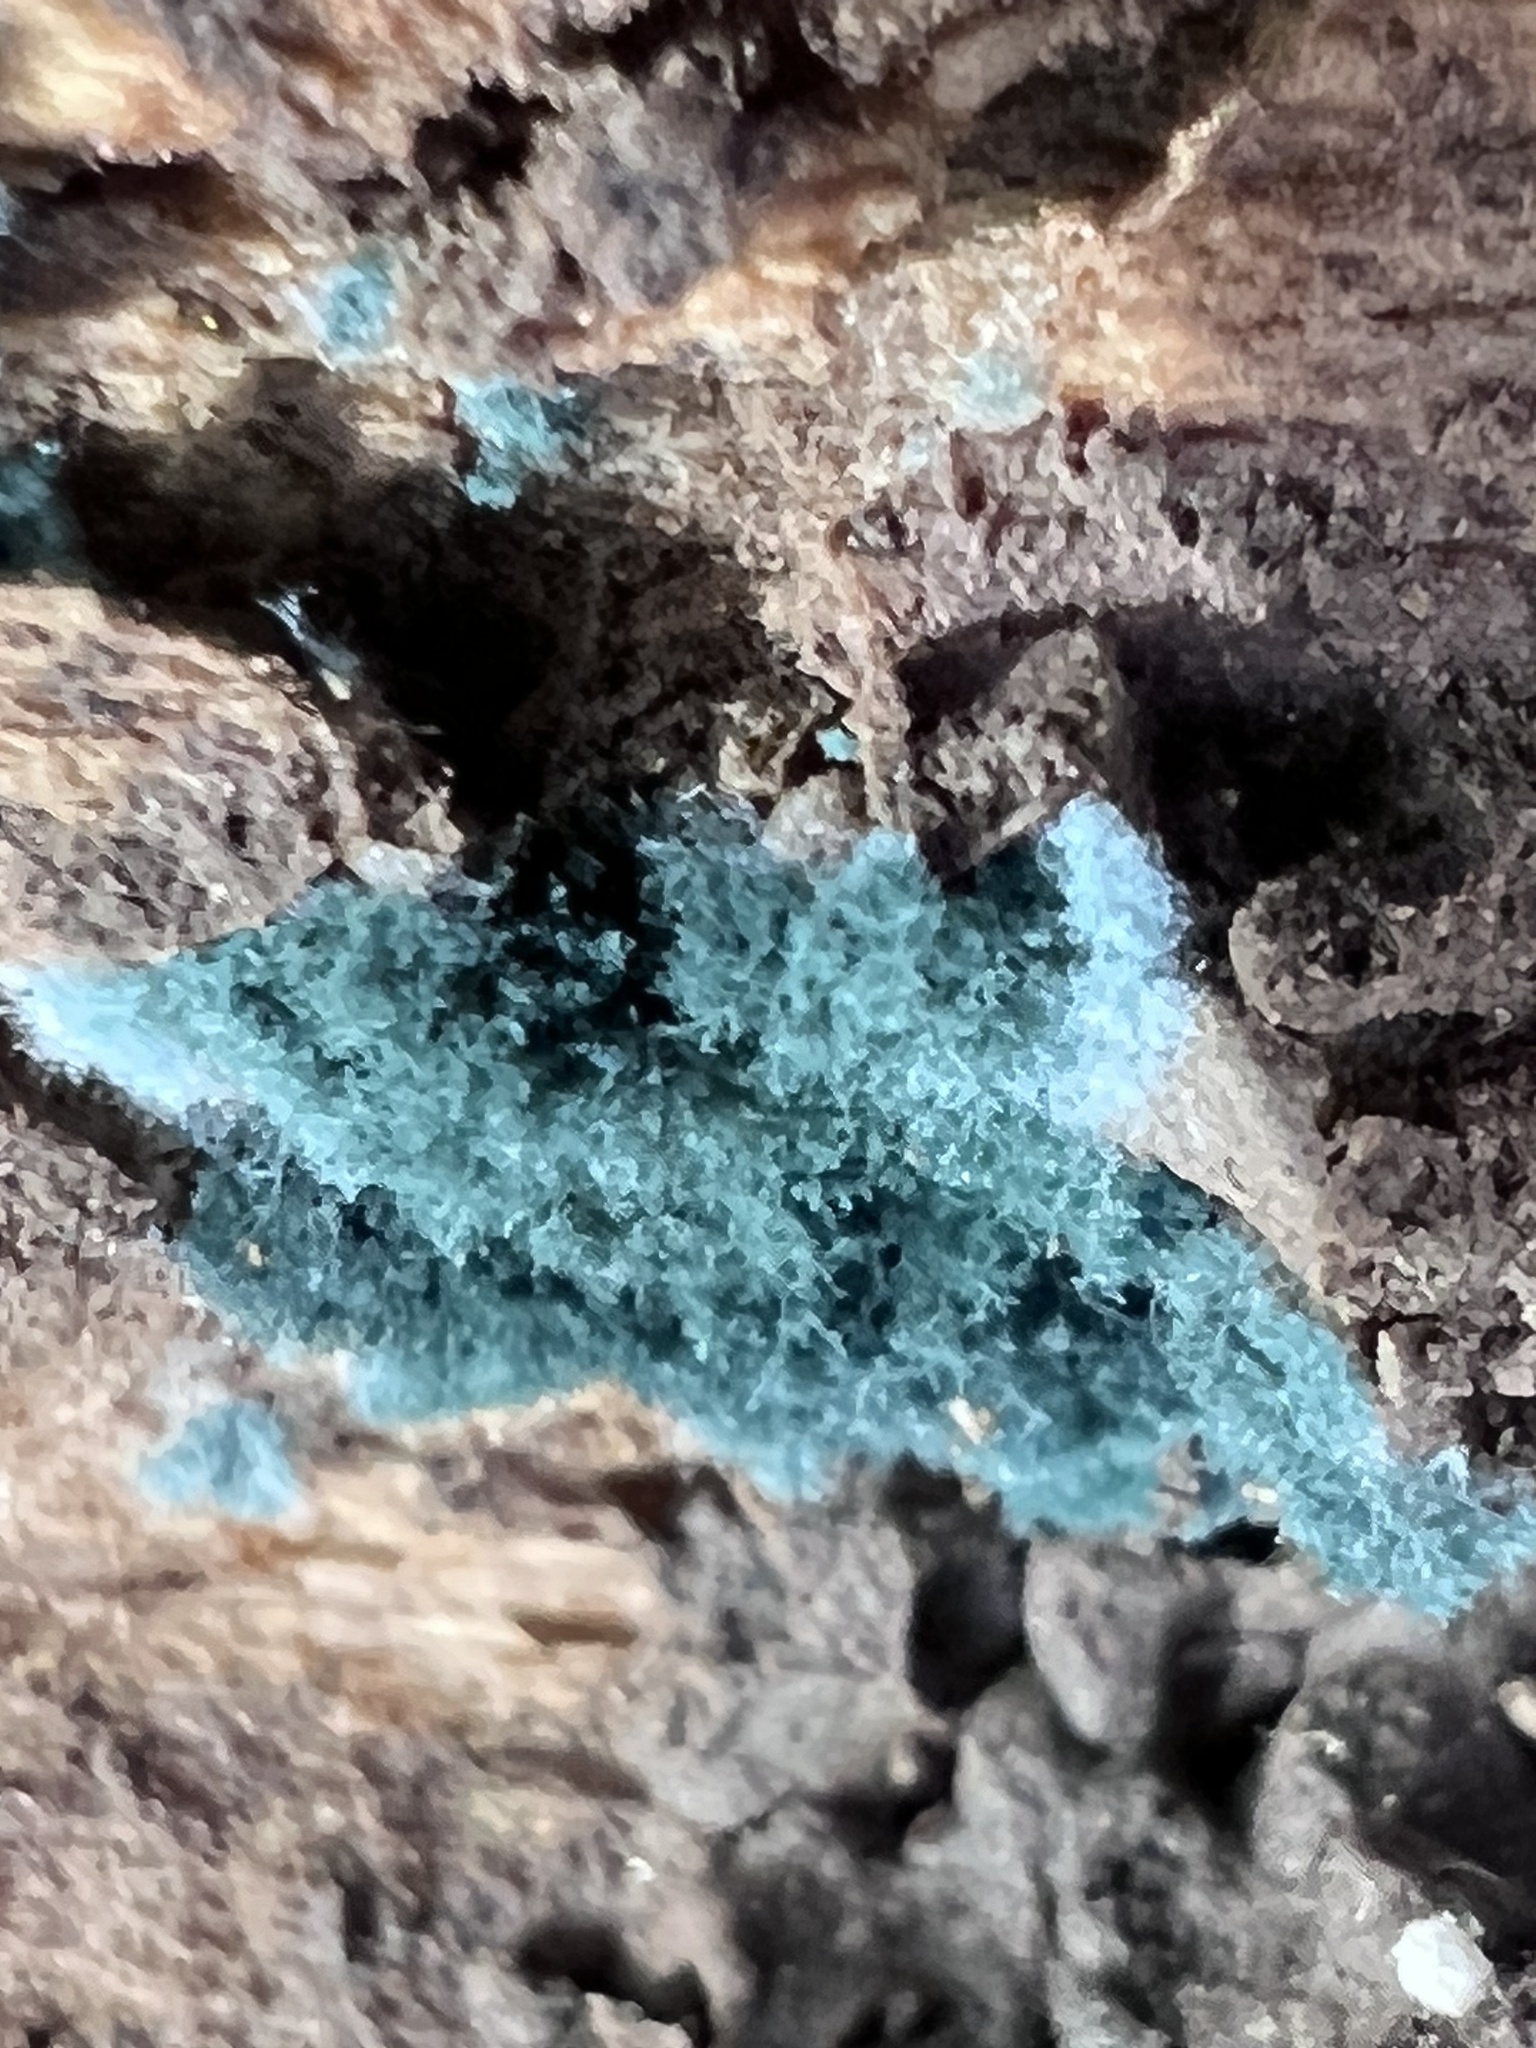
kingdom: Fungi
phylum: Ascomycota
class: Sordariomycetes
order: Hypocreales
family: Hypocreaceae
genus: Trichoderma
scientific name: Trichoderma viride
